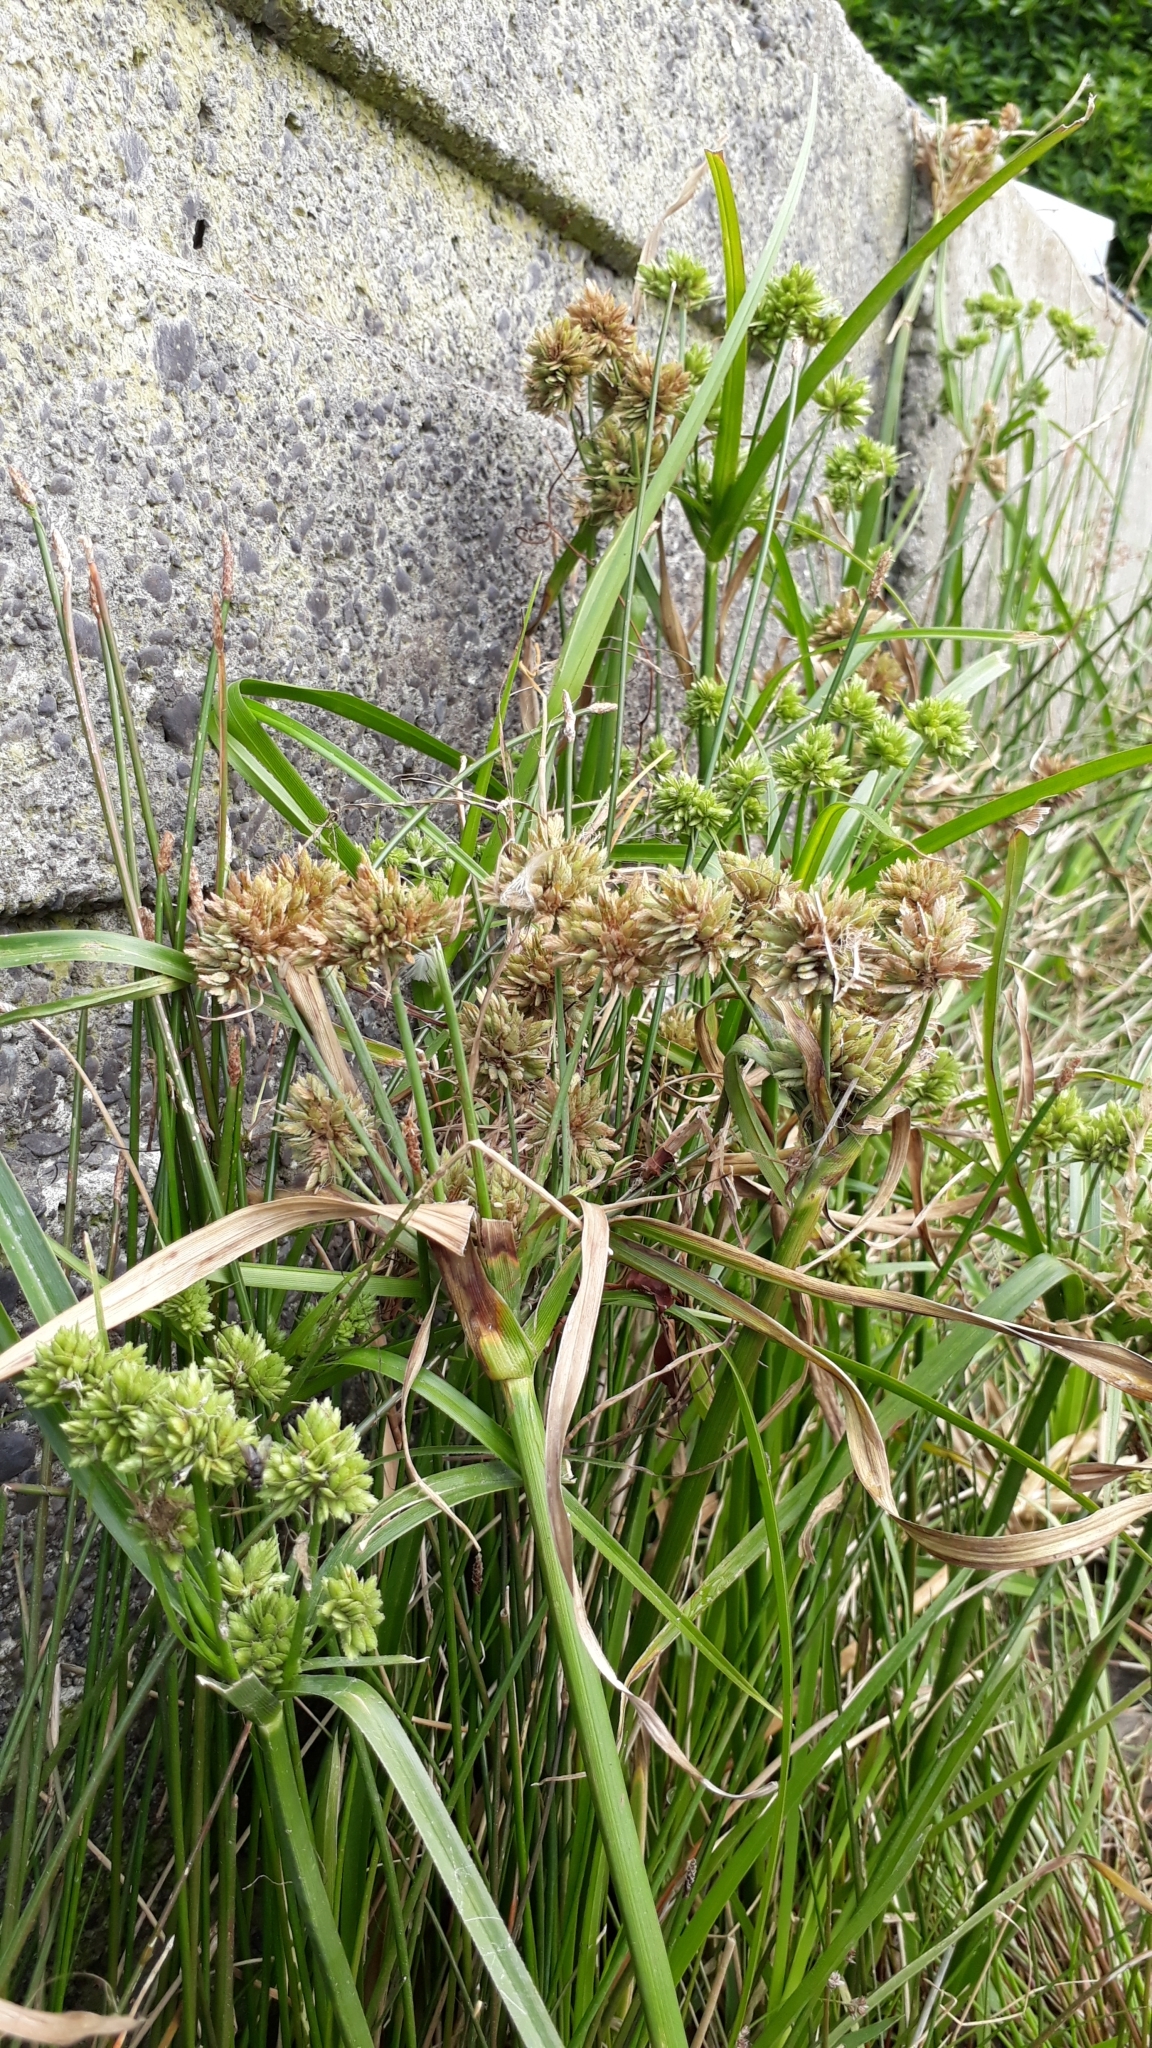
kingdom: Plantae
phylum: Tracheophyta
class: Liliopsida
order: Poales
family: Cyperaceae
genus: Cyperus
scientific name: Cyperus eragrostis
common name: Tall flatsedge
